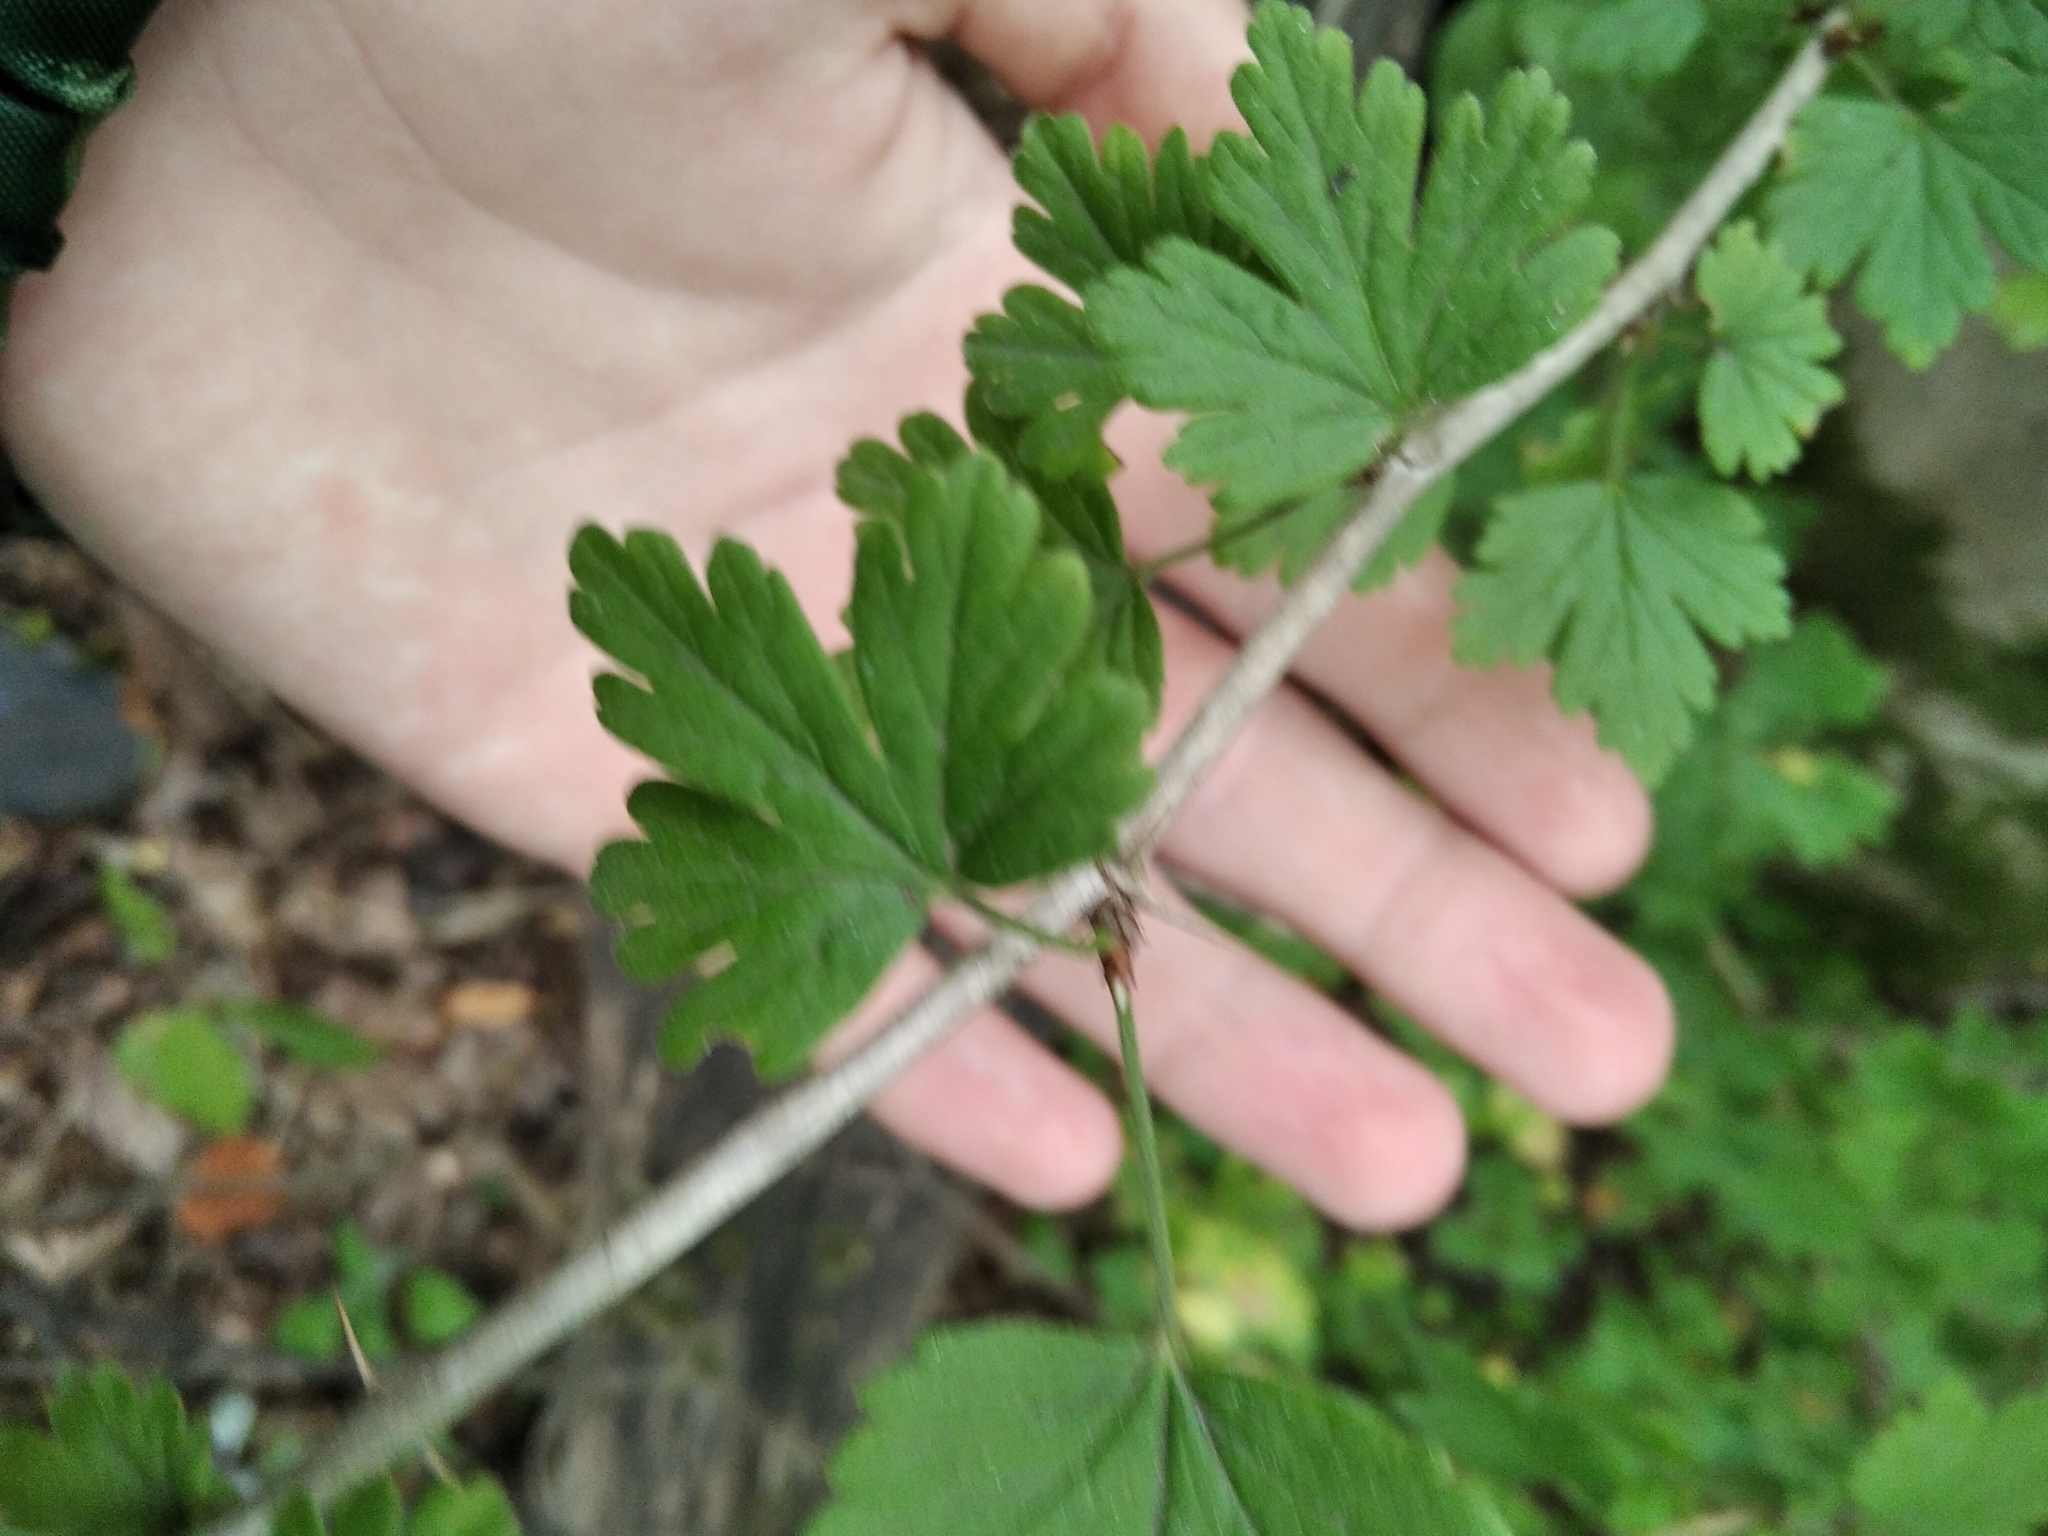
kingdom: Plantae
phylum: Tracheophyta
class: Magnoliopsida
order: Saxifragales
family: Grossulariaceae
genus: Ribes
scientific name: Ribes uva-crispa
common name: Gooseberry
